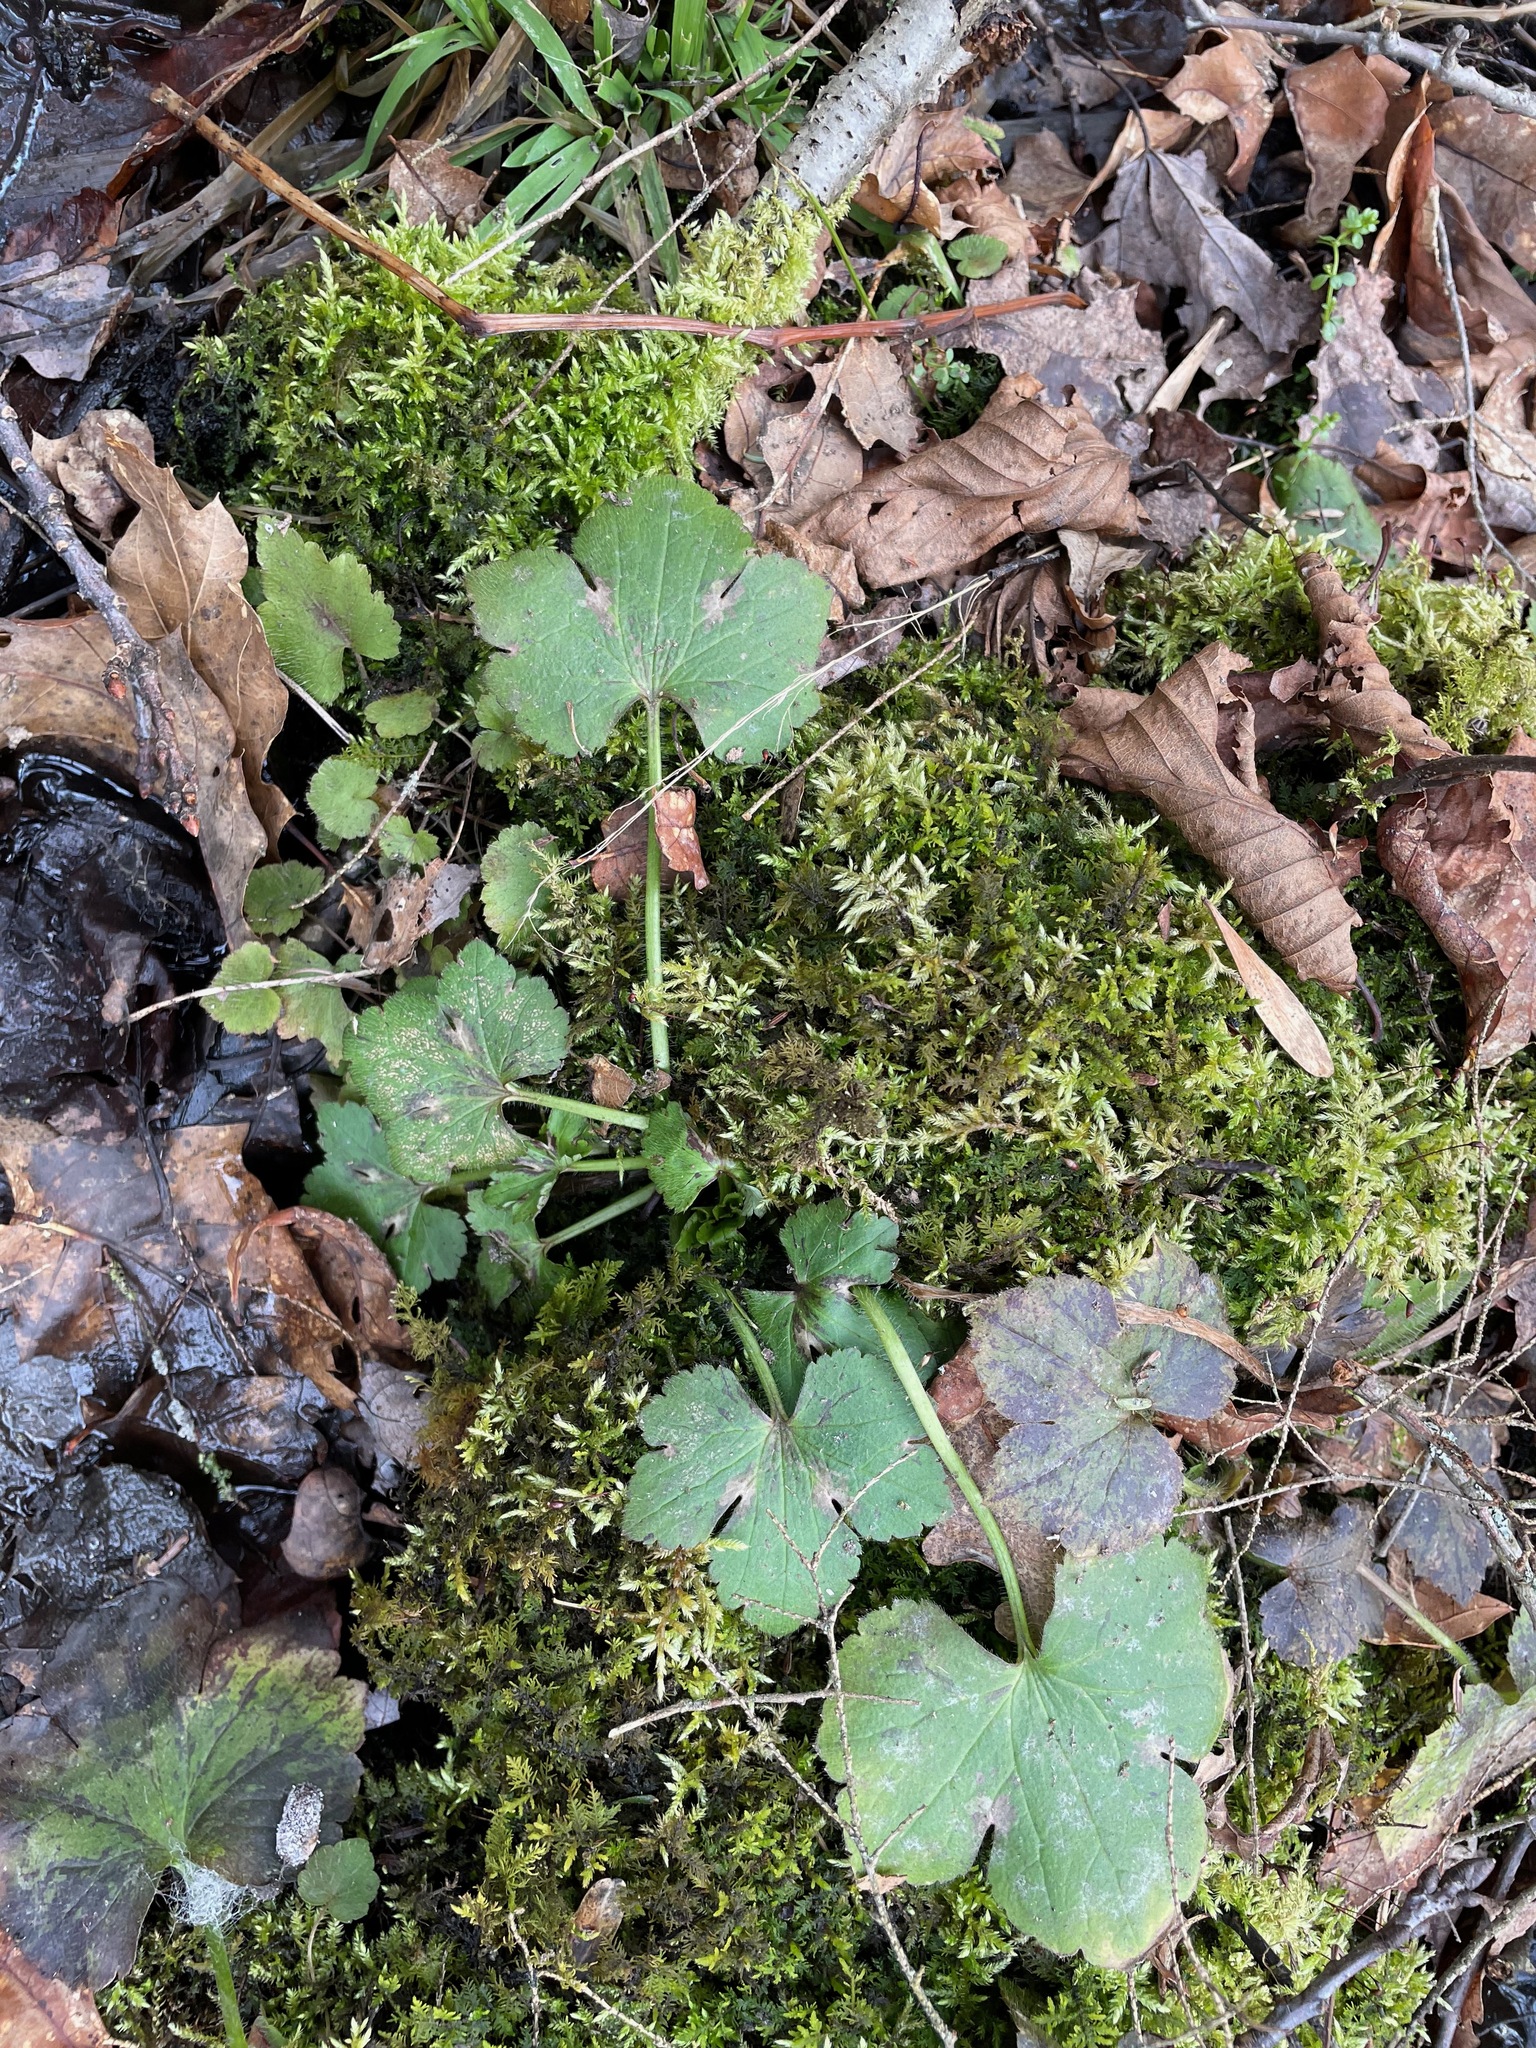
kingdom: Plantae
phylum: Tracheophyta
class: Magnoliopsida
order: Ranunculales
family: Ranunculaceae
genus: Ranunculus
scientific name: Ranunculus recurvatus
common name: Blisterwort
